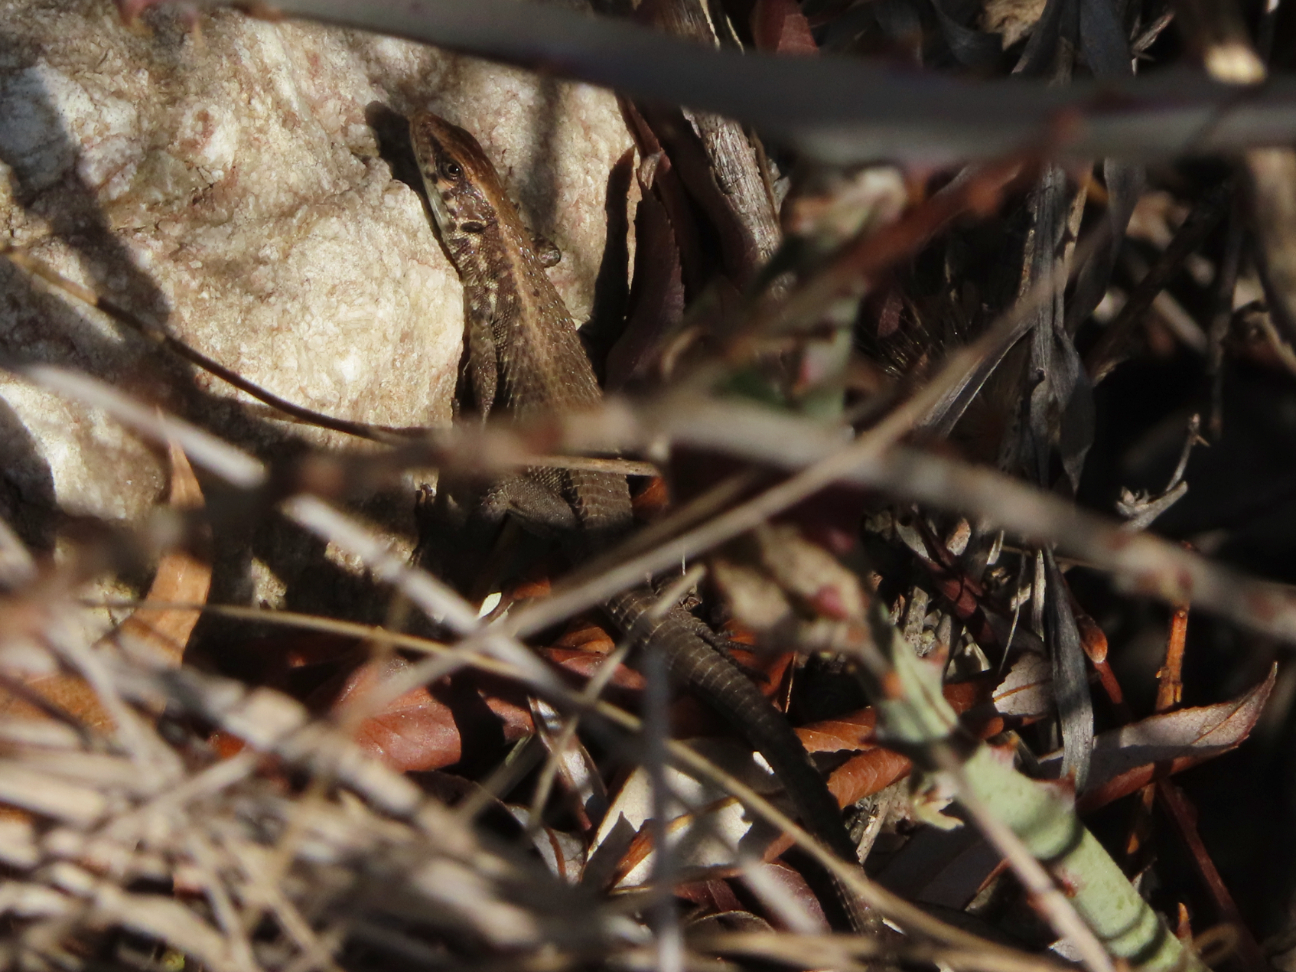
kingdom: Animalia
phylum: Chordata
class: Squamata
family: Lacertidae
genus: Algyroides
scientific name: Algyroides moreoticus
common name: Greek algyroides
